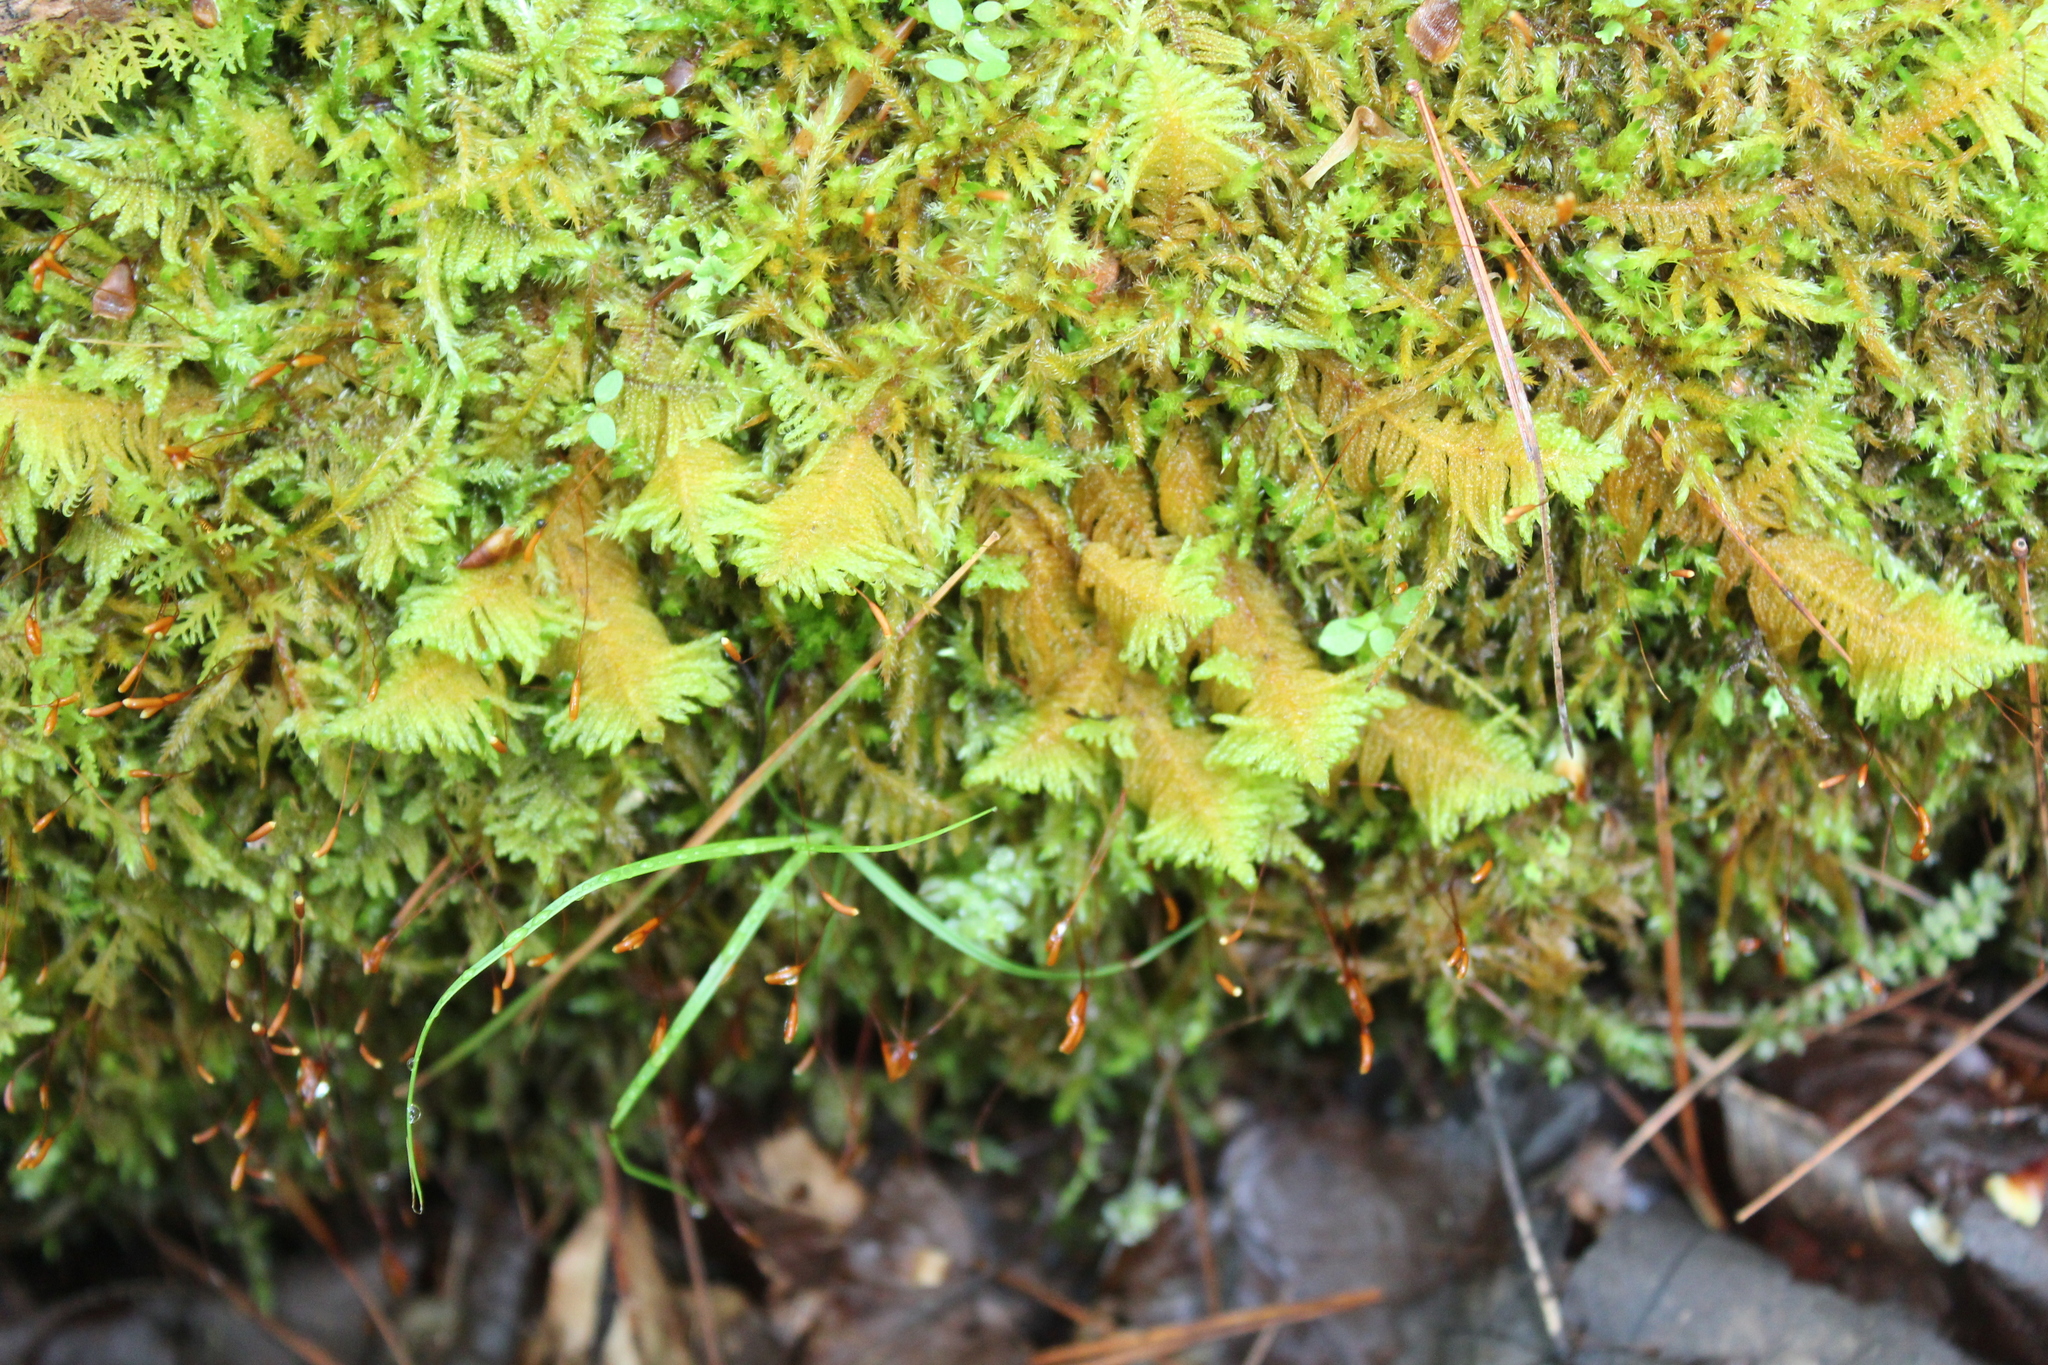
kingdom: Plantae
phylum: Bryophyta
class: Bryopsida
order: Hypnales
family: Pylaisiaceae
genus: Ptilium
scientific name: Ptilium crista-castrensis
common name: Knight's plume moss
